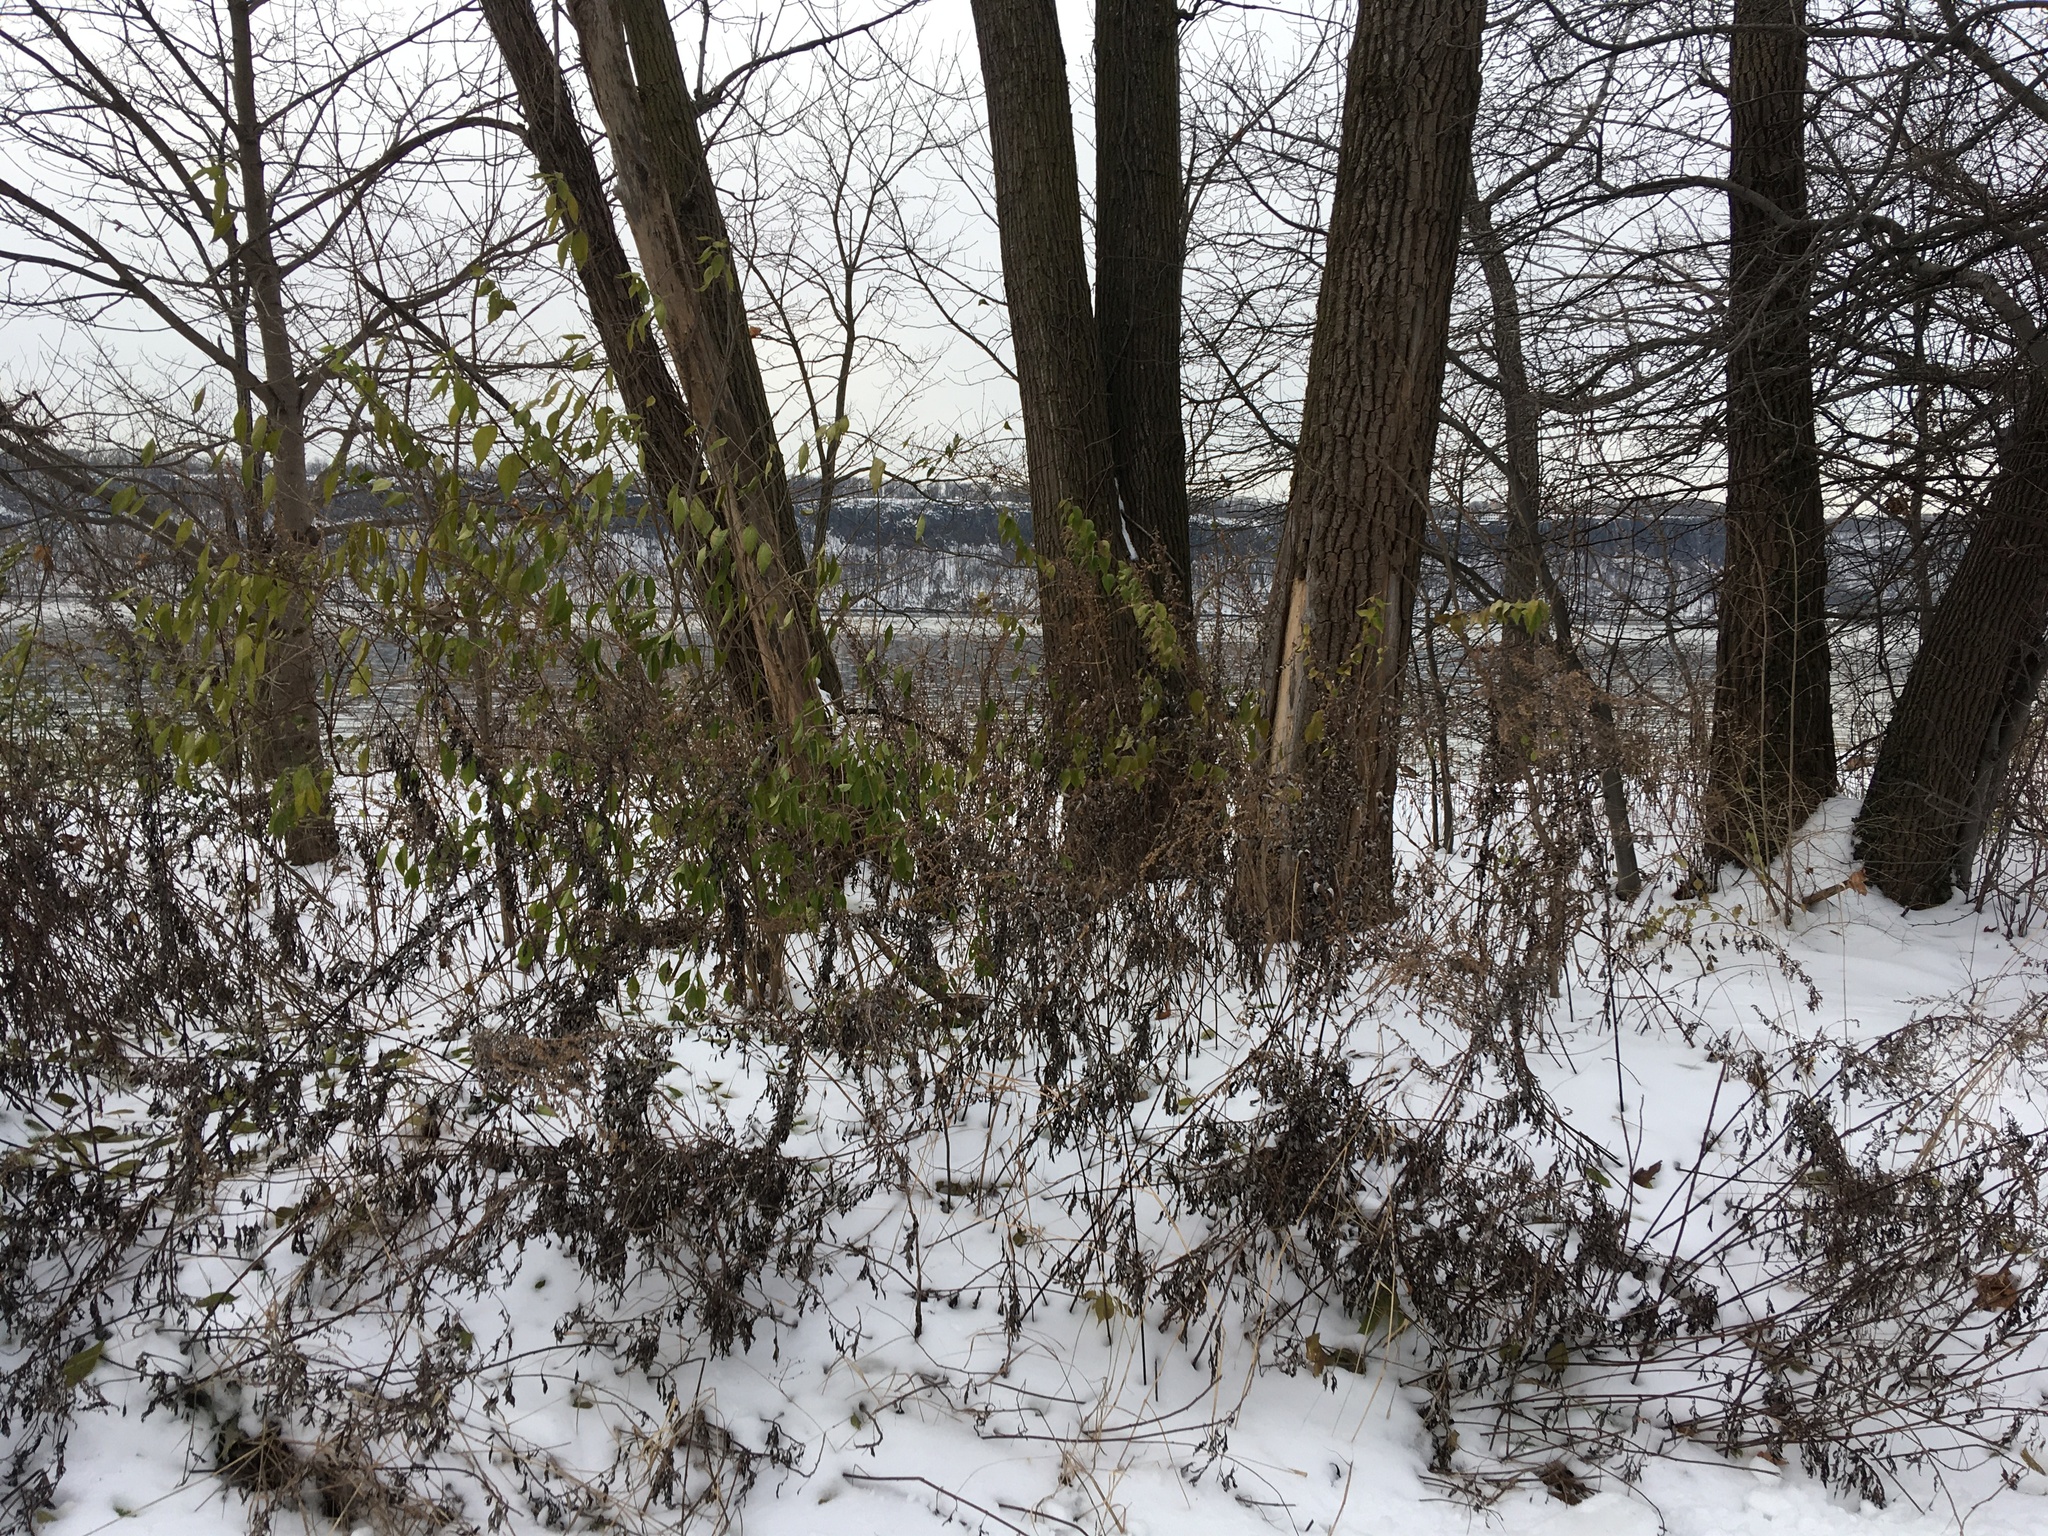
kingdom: Plantae
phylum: Tracheophyta
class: Magnoliopsida
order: Asterales
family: Asteraceae
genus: Artemisia
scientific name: Artemisia vulgaris
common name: Mugwort
